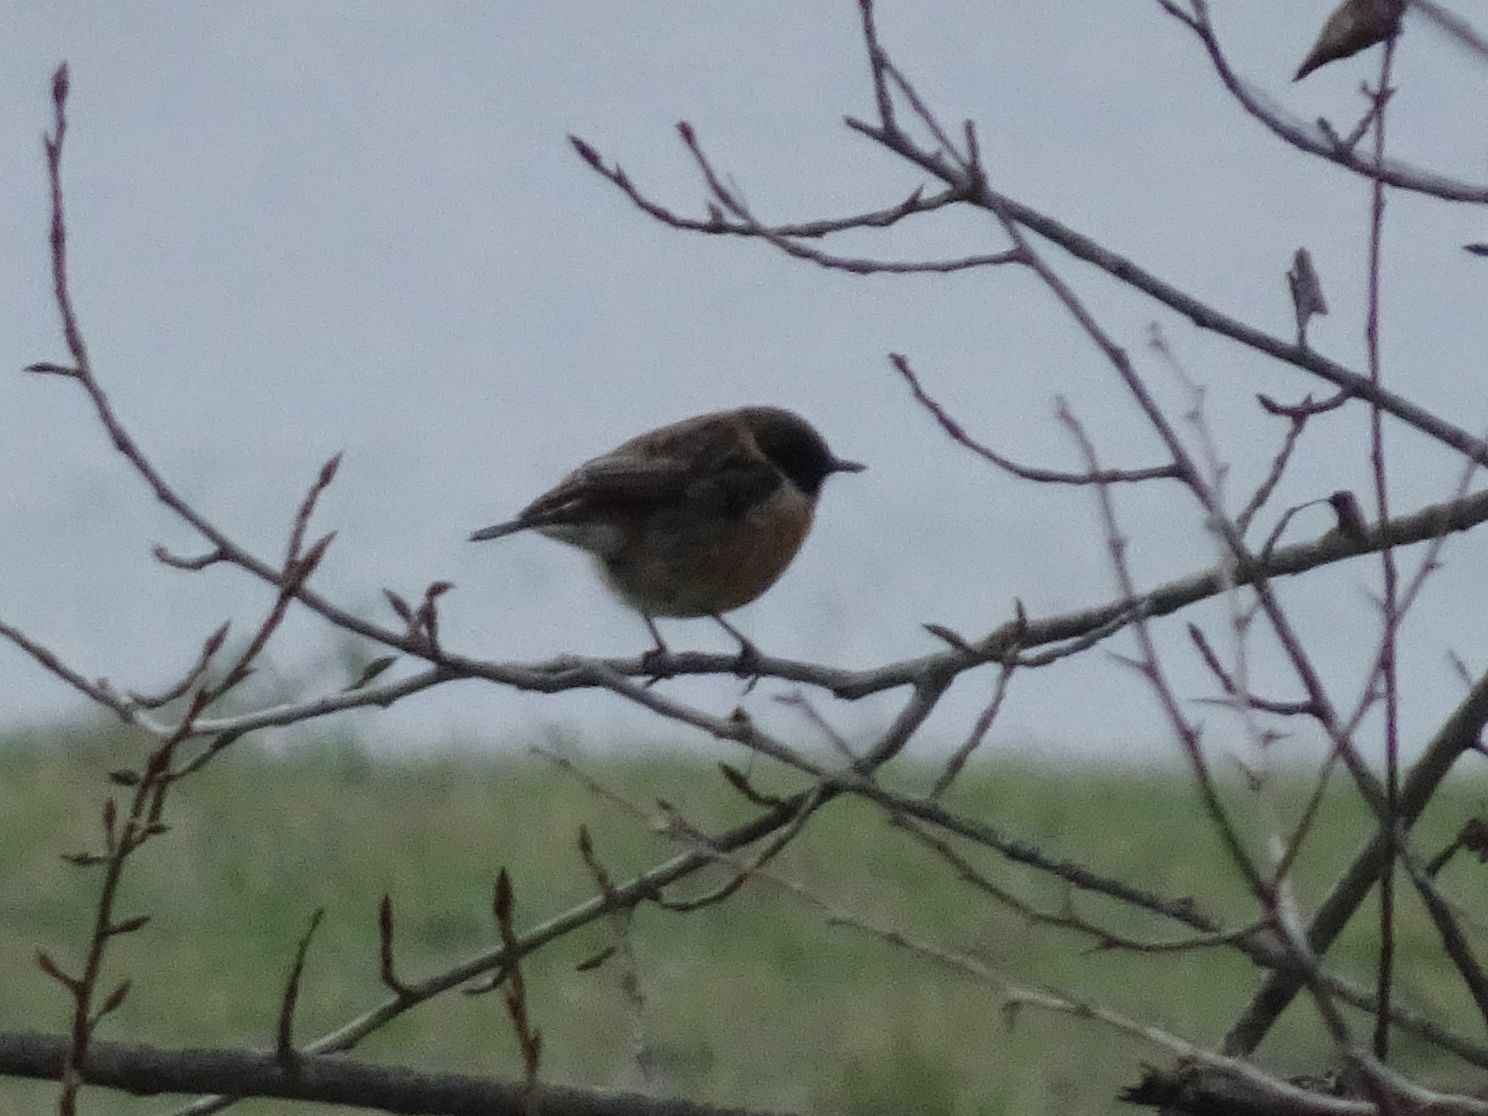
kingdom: Animalia
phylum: Chordata
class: Aves
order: Passeriformes
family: Muscicapidae
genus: Saxicola
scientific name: Saxicola rubicola
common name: European stonechat
